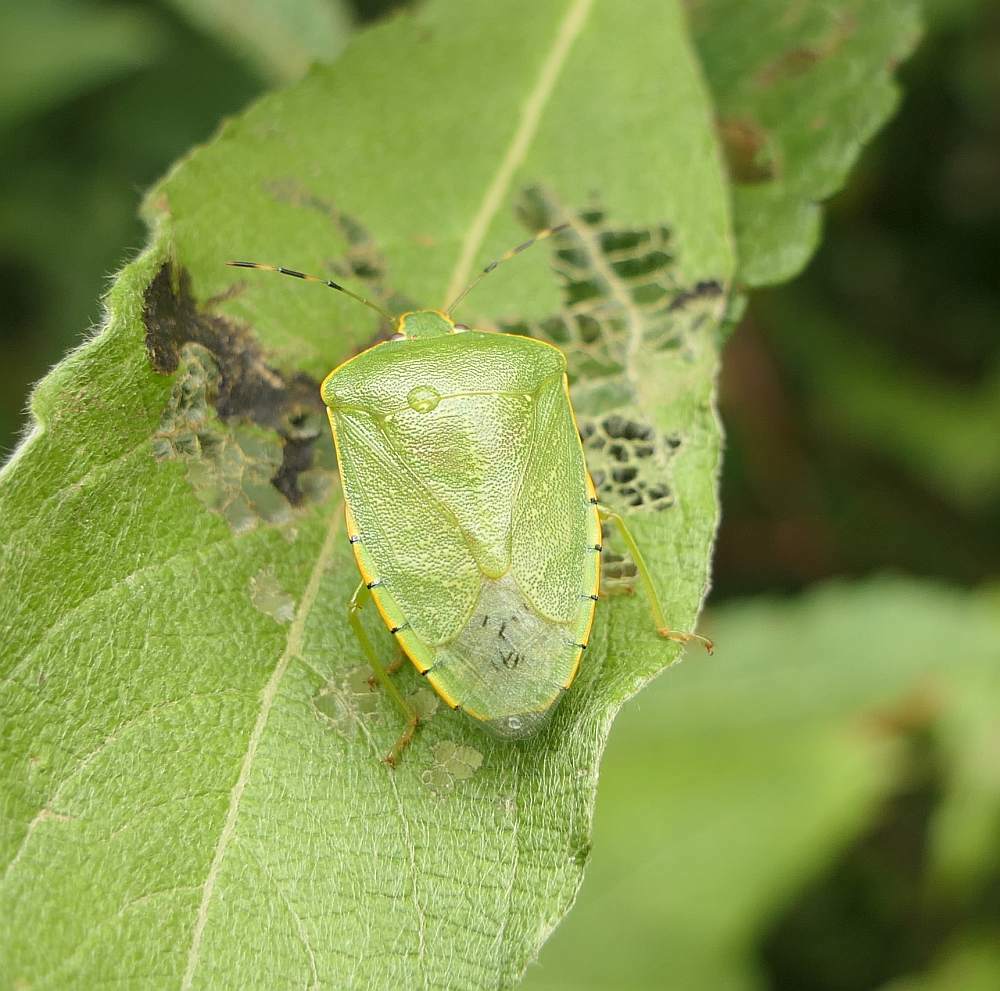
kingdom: Animalia
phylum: Arthropoda
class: Insecta
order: Hemiptera
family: Pentatomidae
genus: Chinavia
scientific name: Chinavia hilaris
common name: Green stink bug
